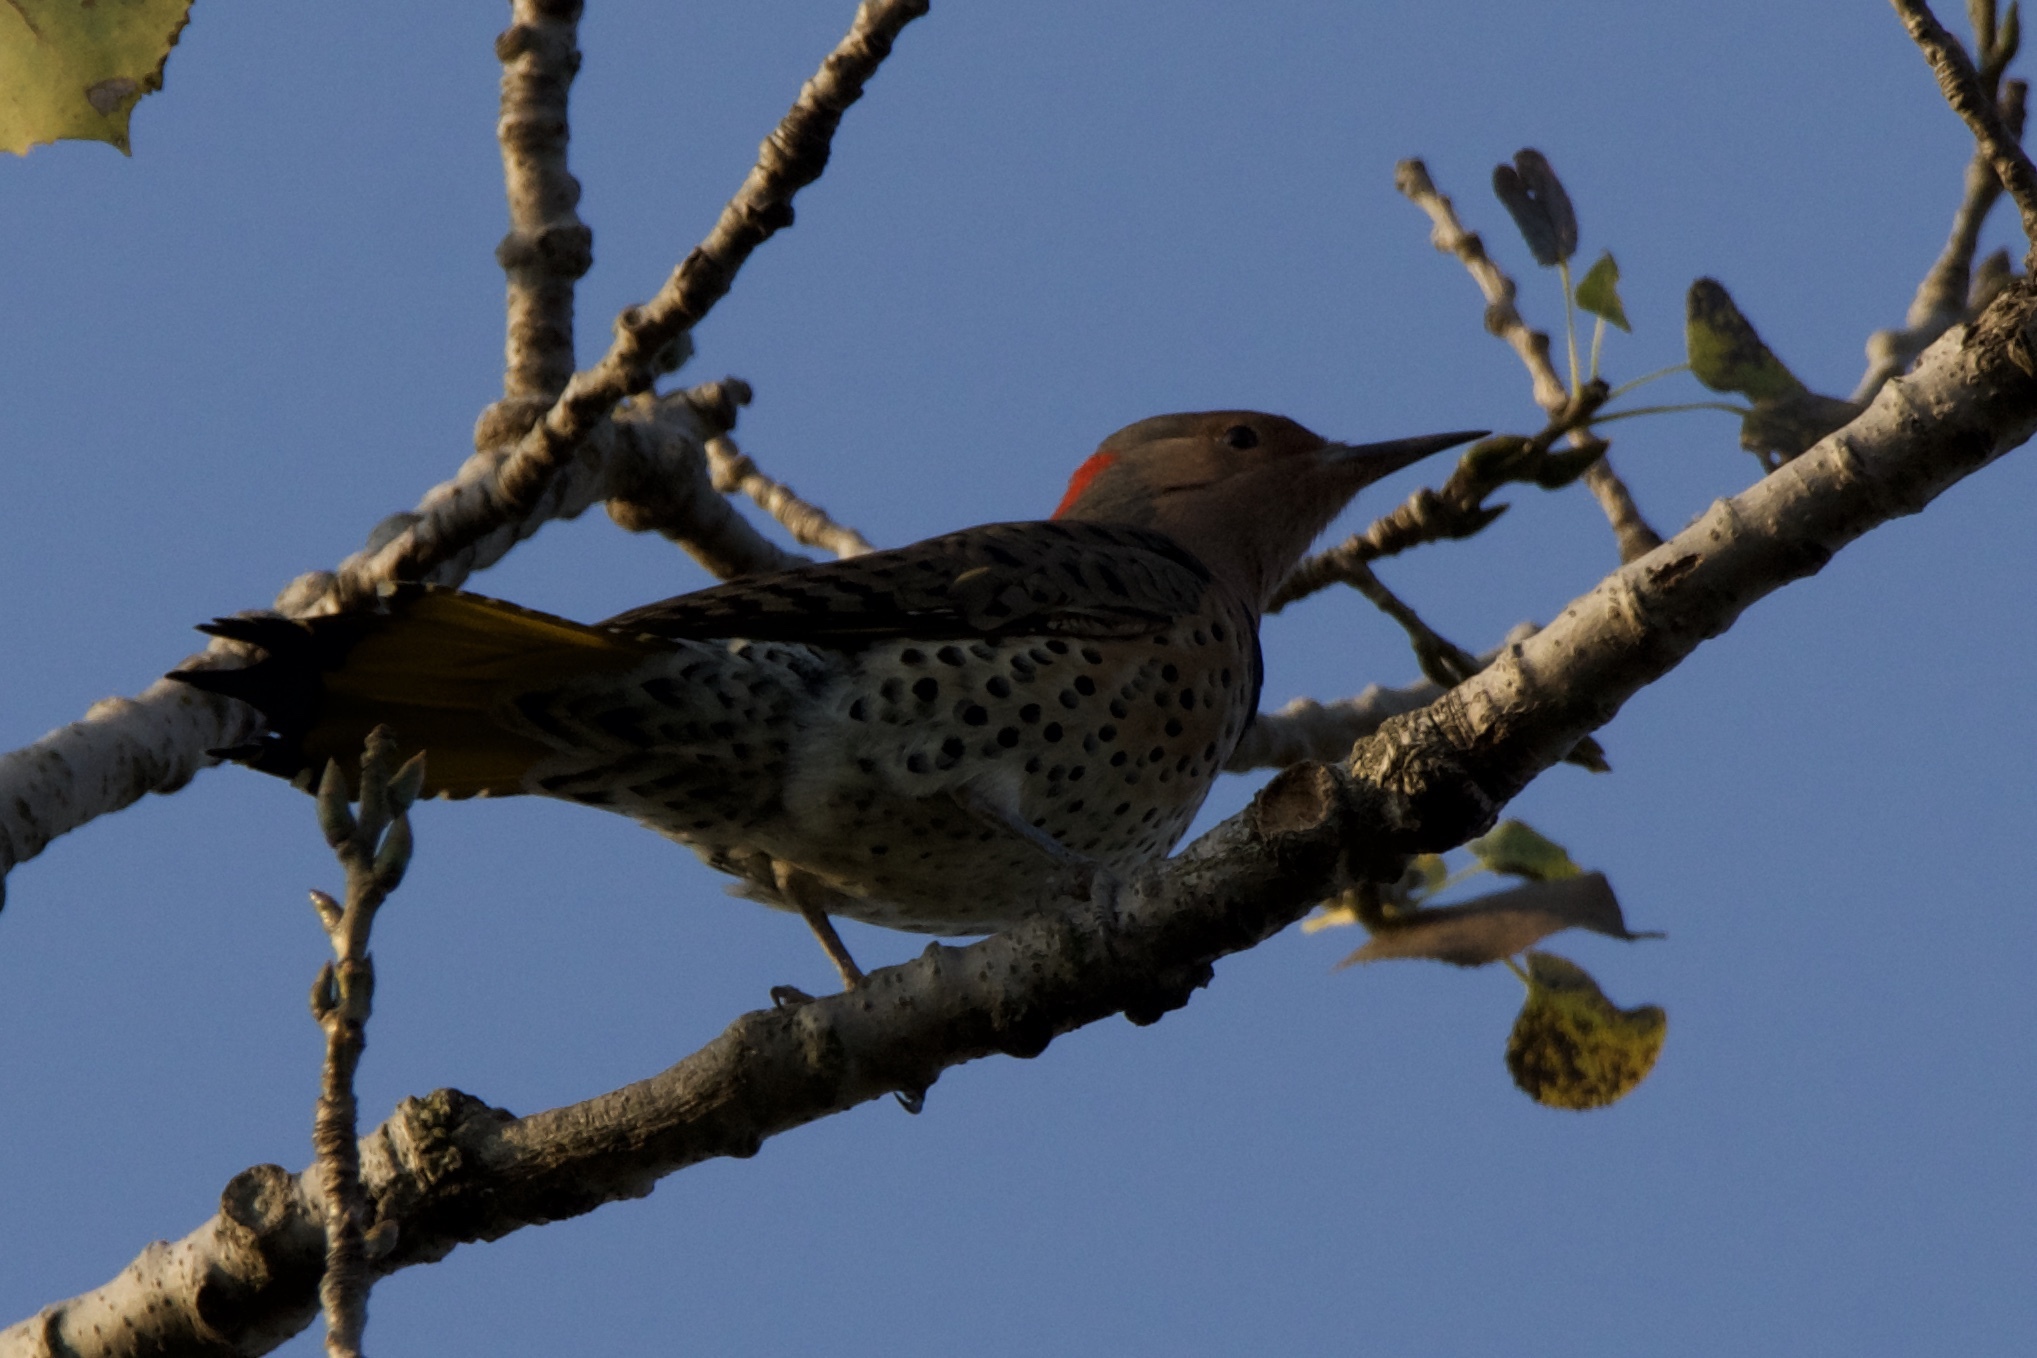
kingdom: Animalia
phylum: Chordata
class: Aves
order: Piciformes
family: Picidae
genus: Colaptes
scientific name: Colaptes auratus
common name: Northern flicker
